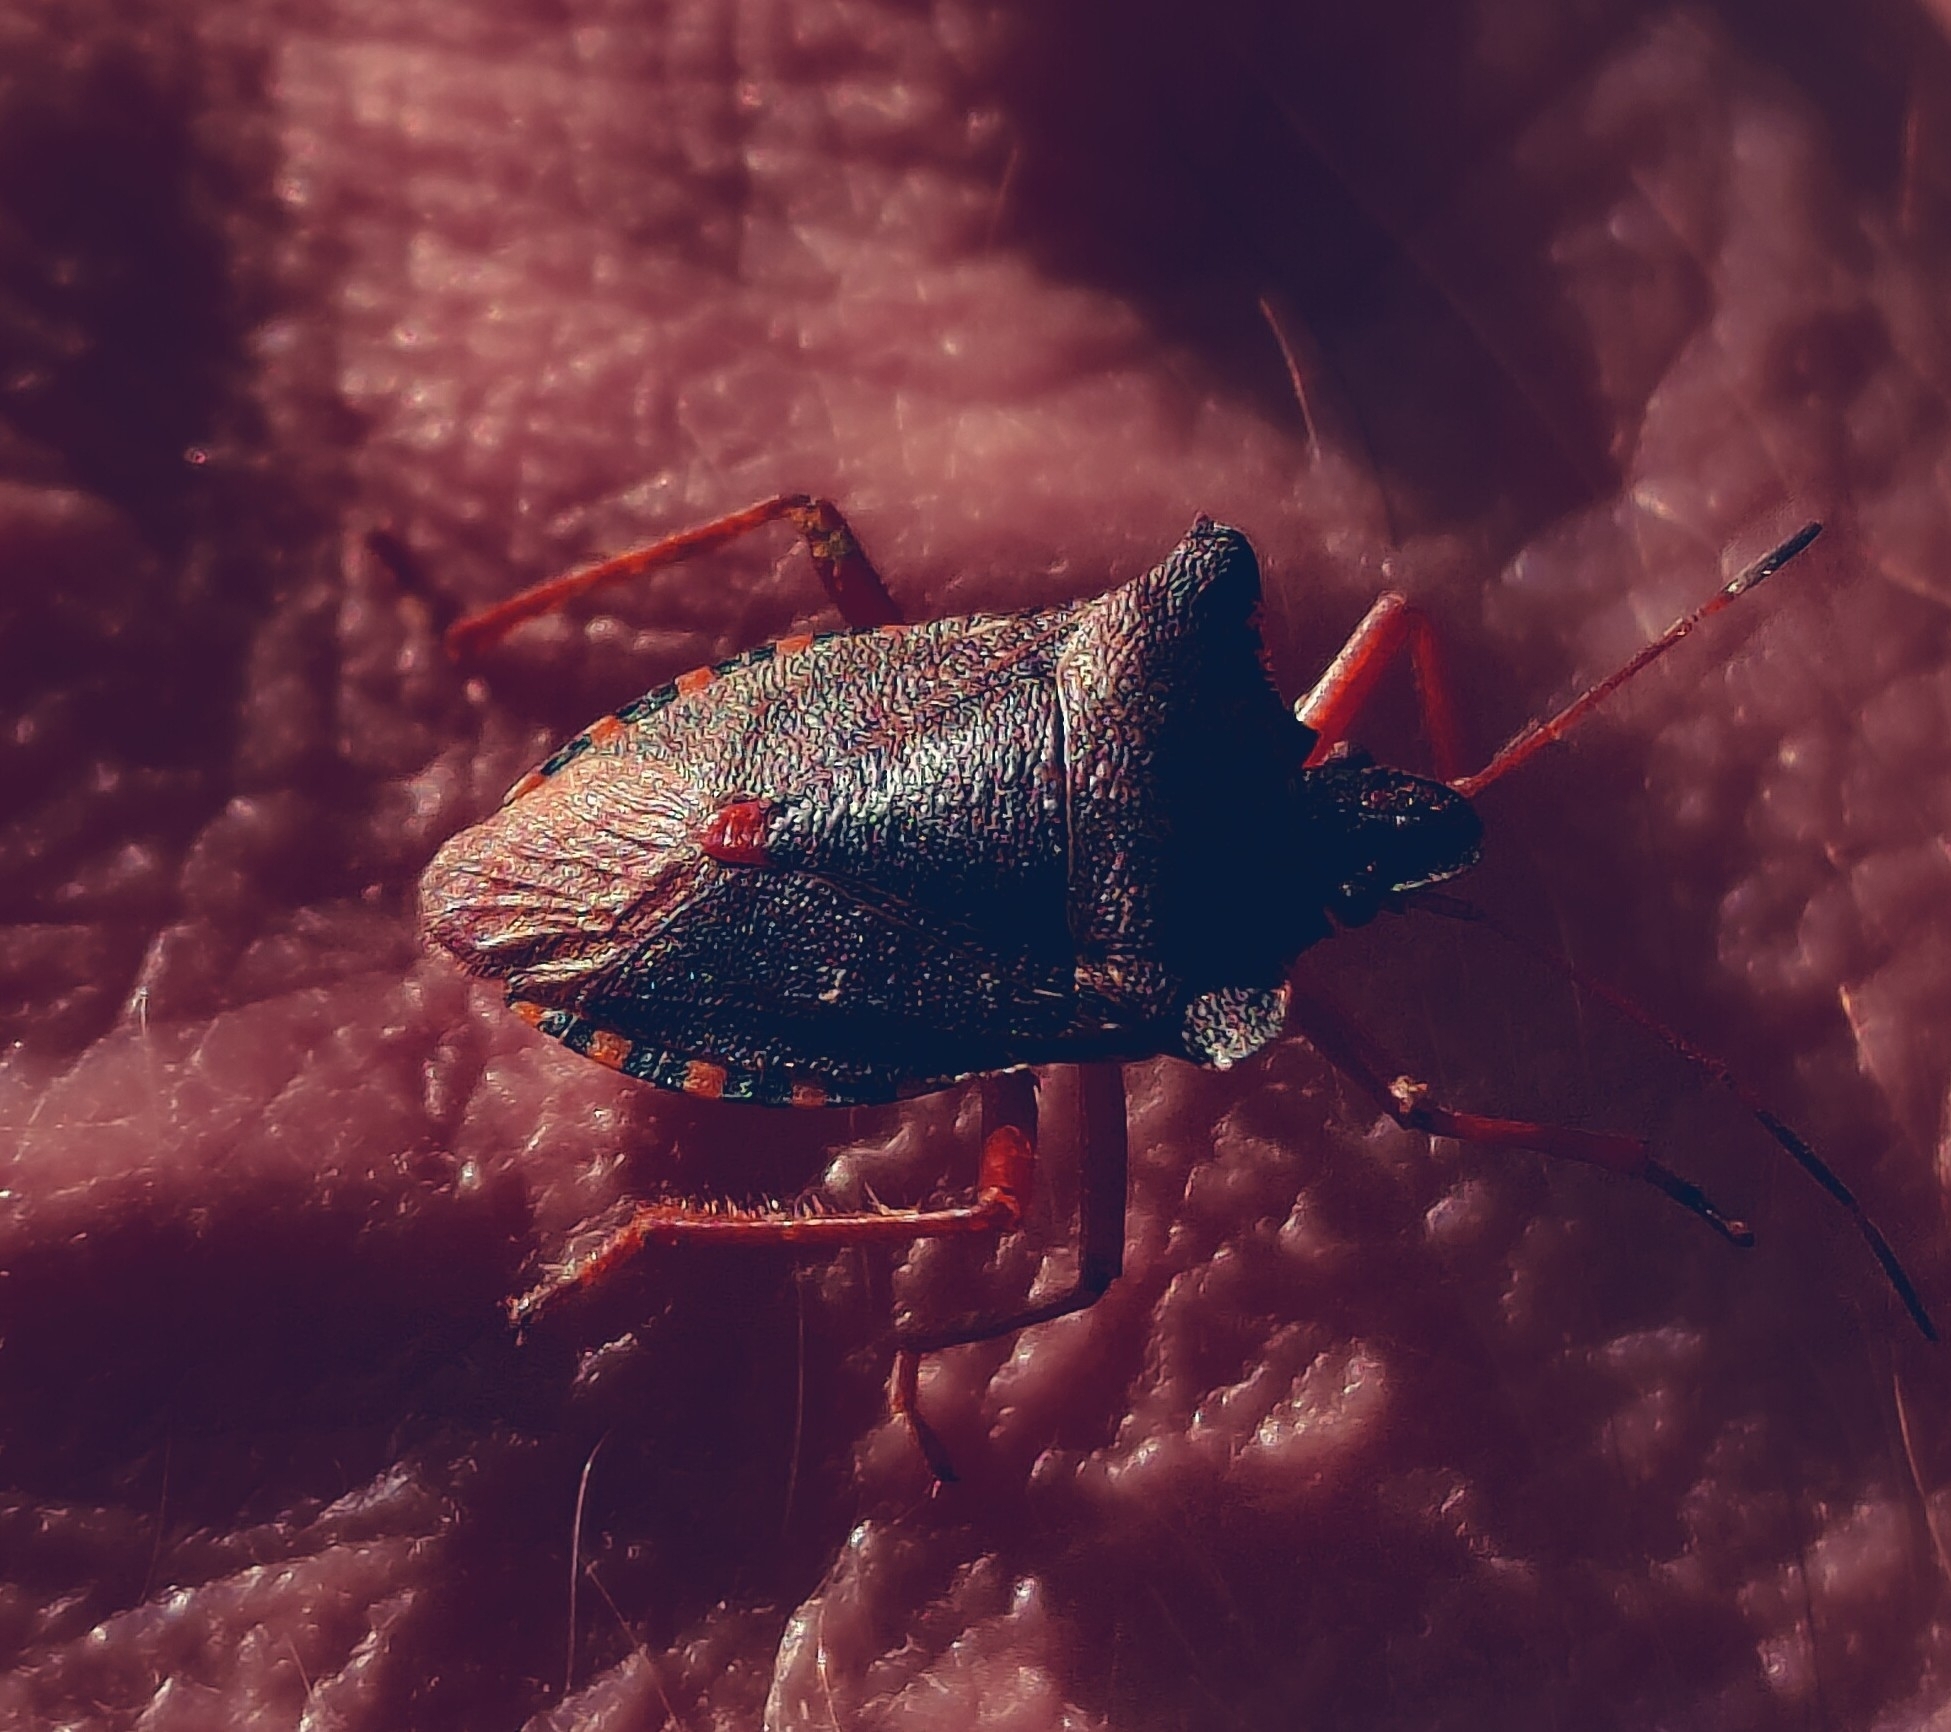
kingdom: Animalia
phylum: Arthropoda
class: Insecta
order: Hemiptera
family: Pentatomidae
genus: Pentatoma
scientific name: Pentatoma rufipes
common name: Forest bug
